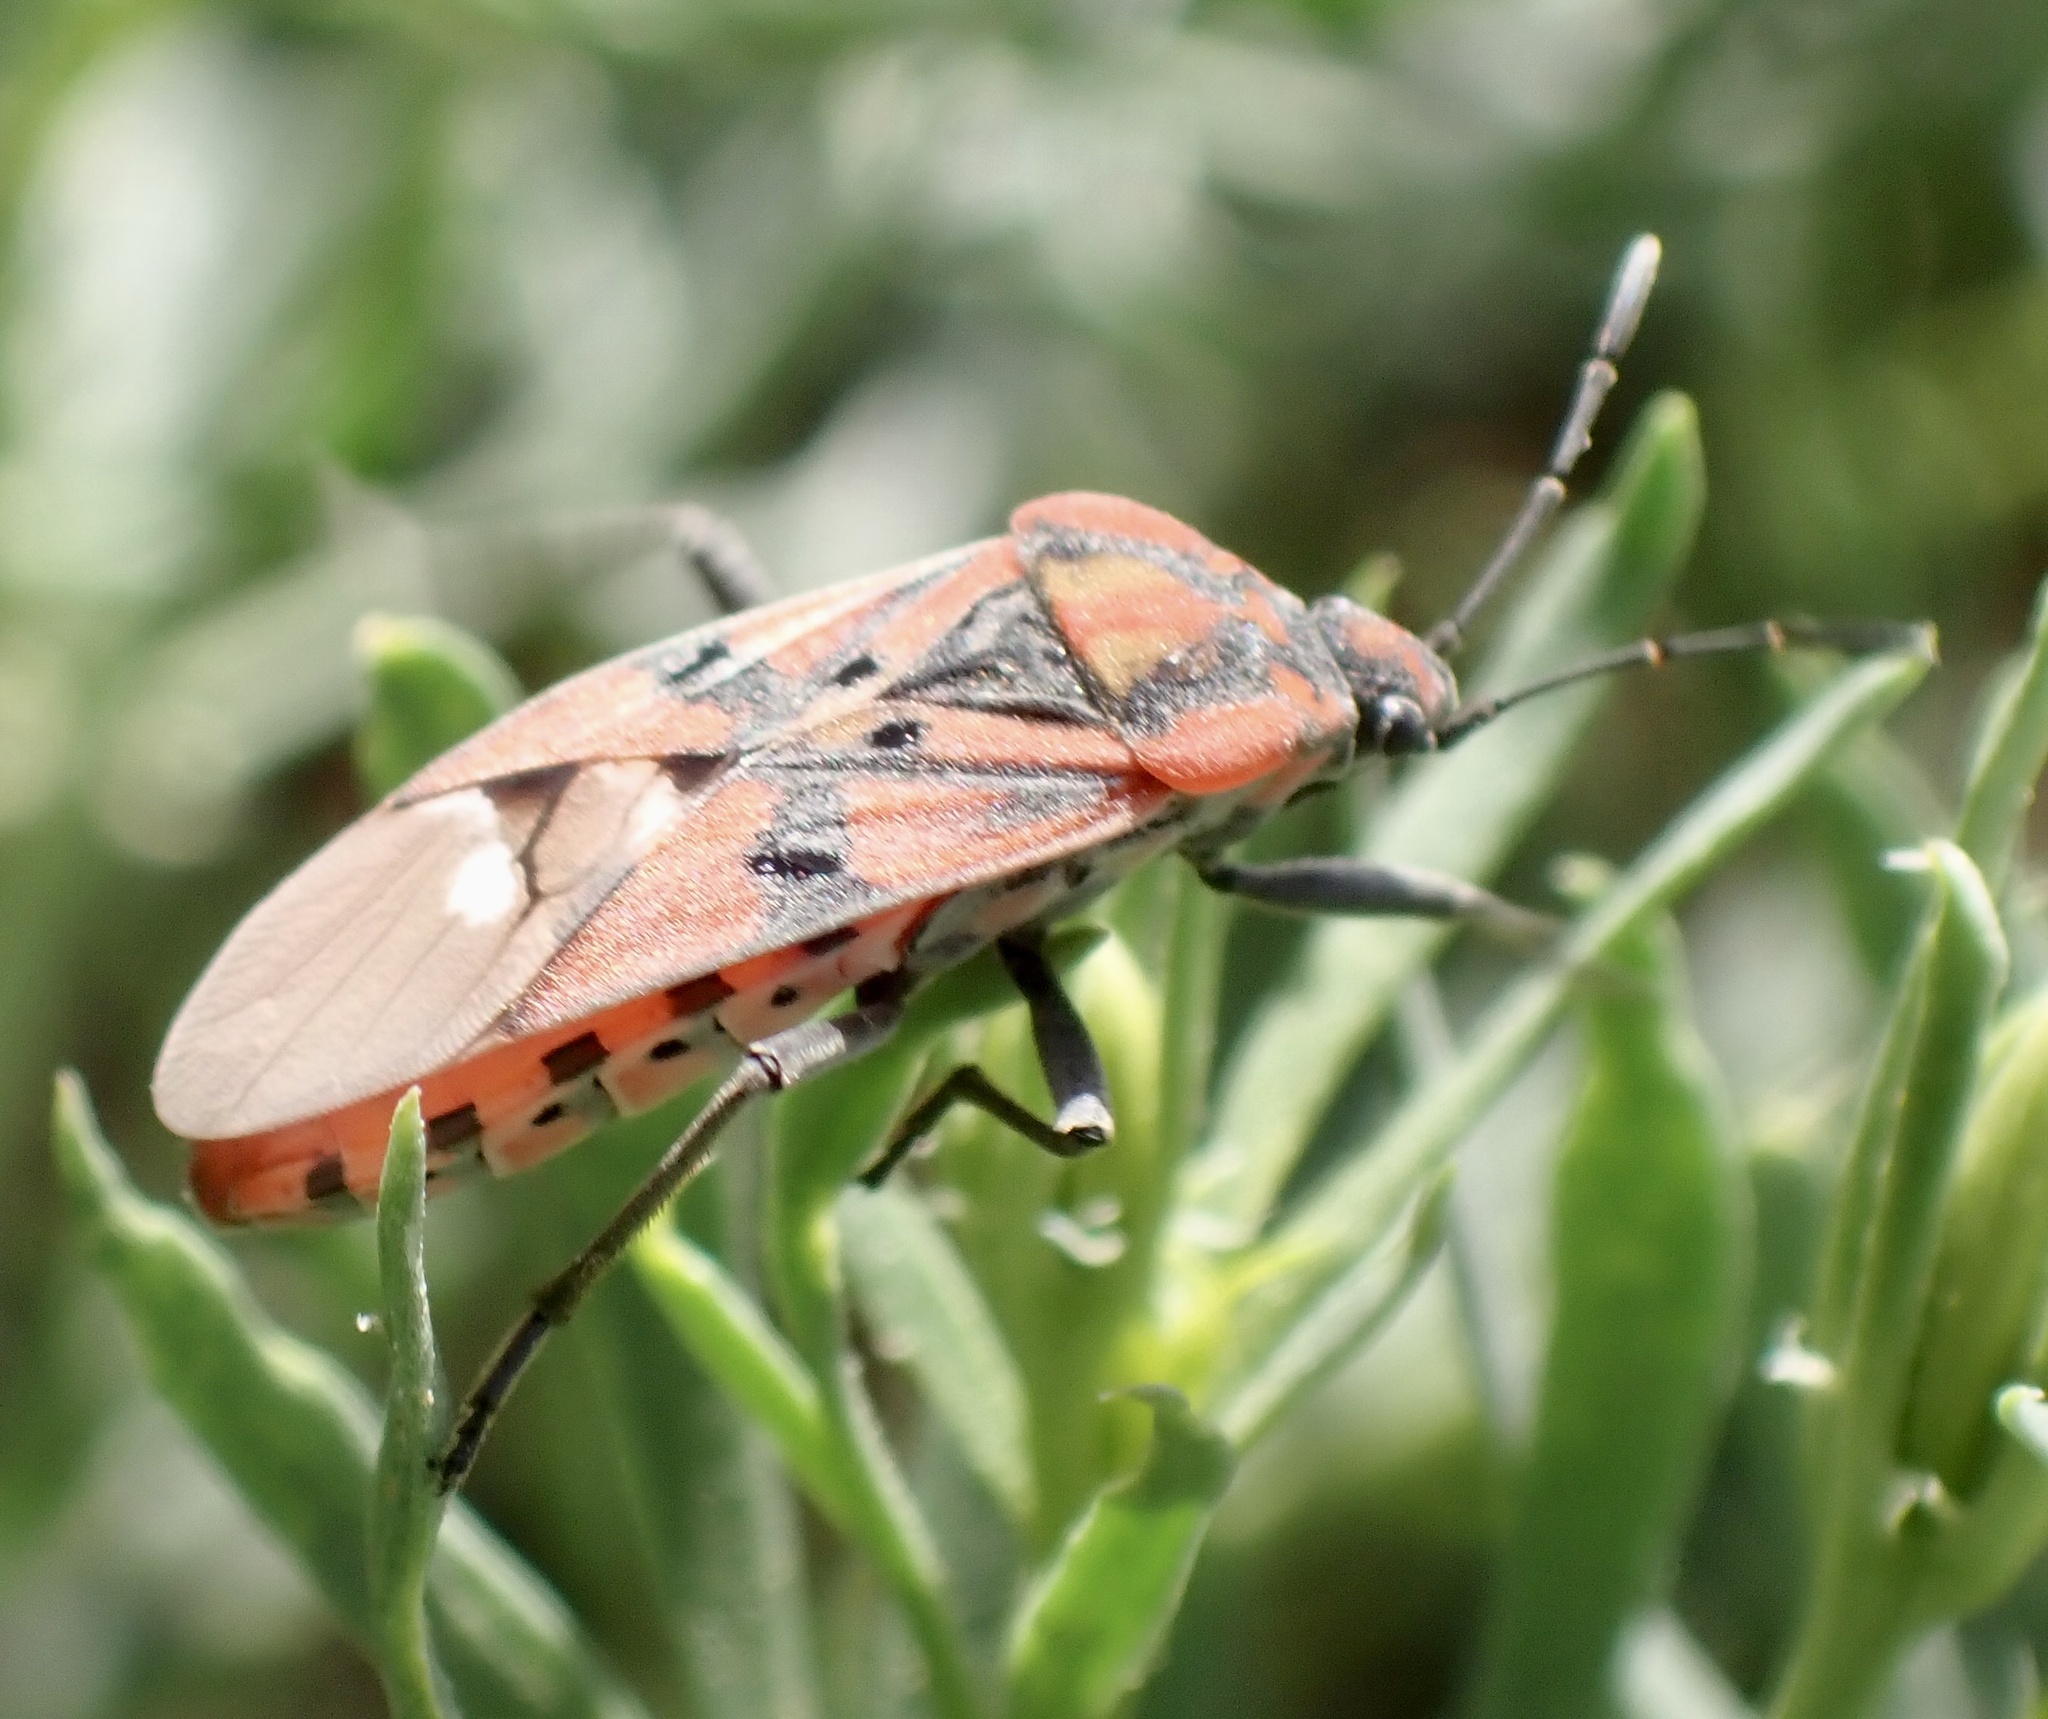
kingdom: Animalia
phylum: Arthropoda
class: Insecta
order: Hemiptera
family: Lygaeidae
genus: Spilostethus
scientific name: Spilostethus pandurus
